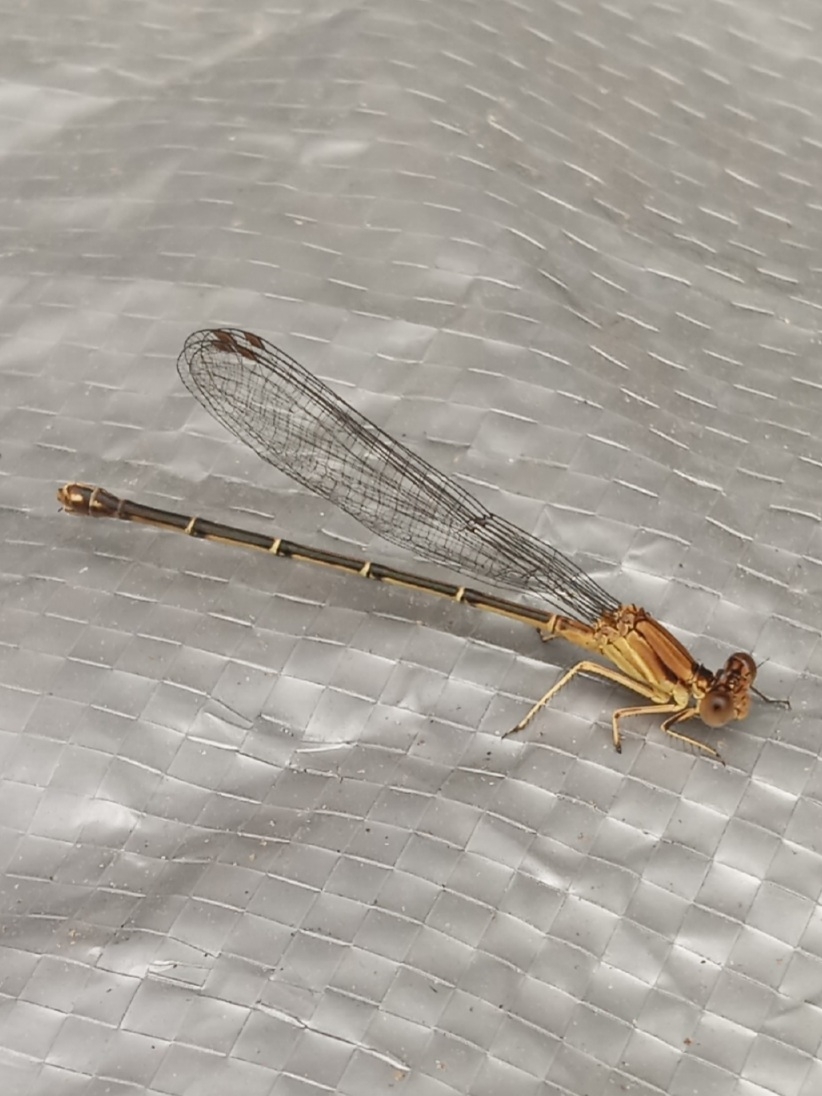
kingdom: Animalia
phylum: Arthropoda
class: Insecta
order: Odonata
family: Coenagrionidae
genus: Argia
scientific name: Argia apicalis
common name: Blue-fronted dancer
